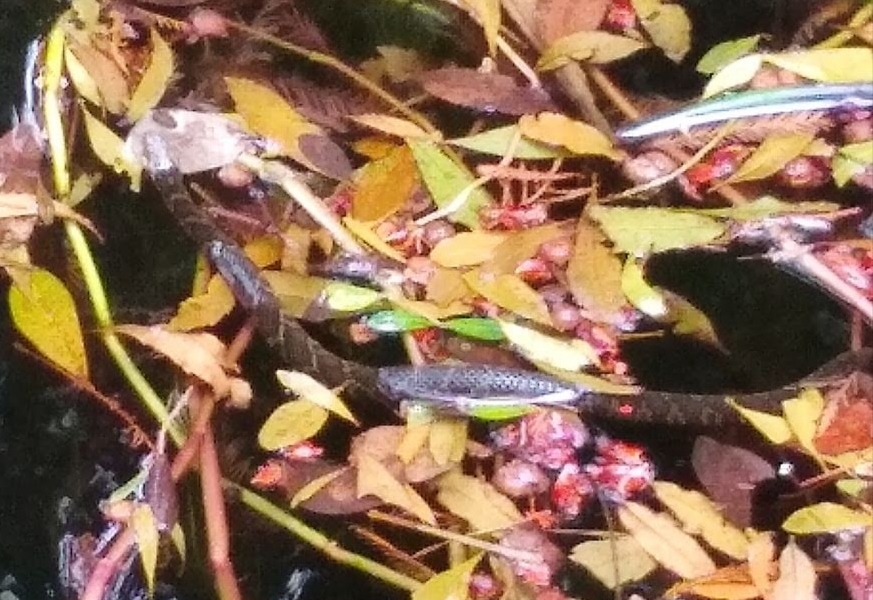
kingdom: Animalia
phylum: Chordata
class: Squamata
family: Colubridae
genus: Nerodia
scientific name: Nerodia fasciata
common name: Southern water snake
